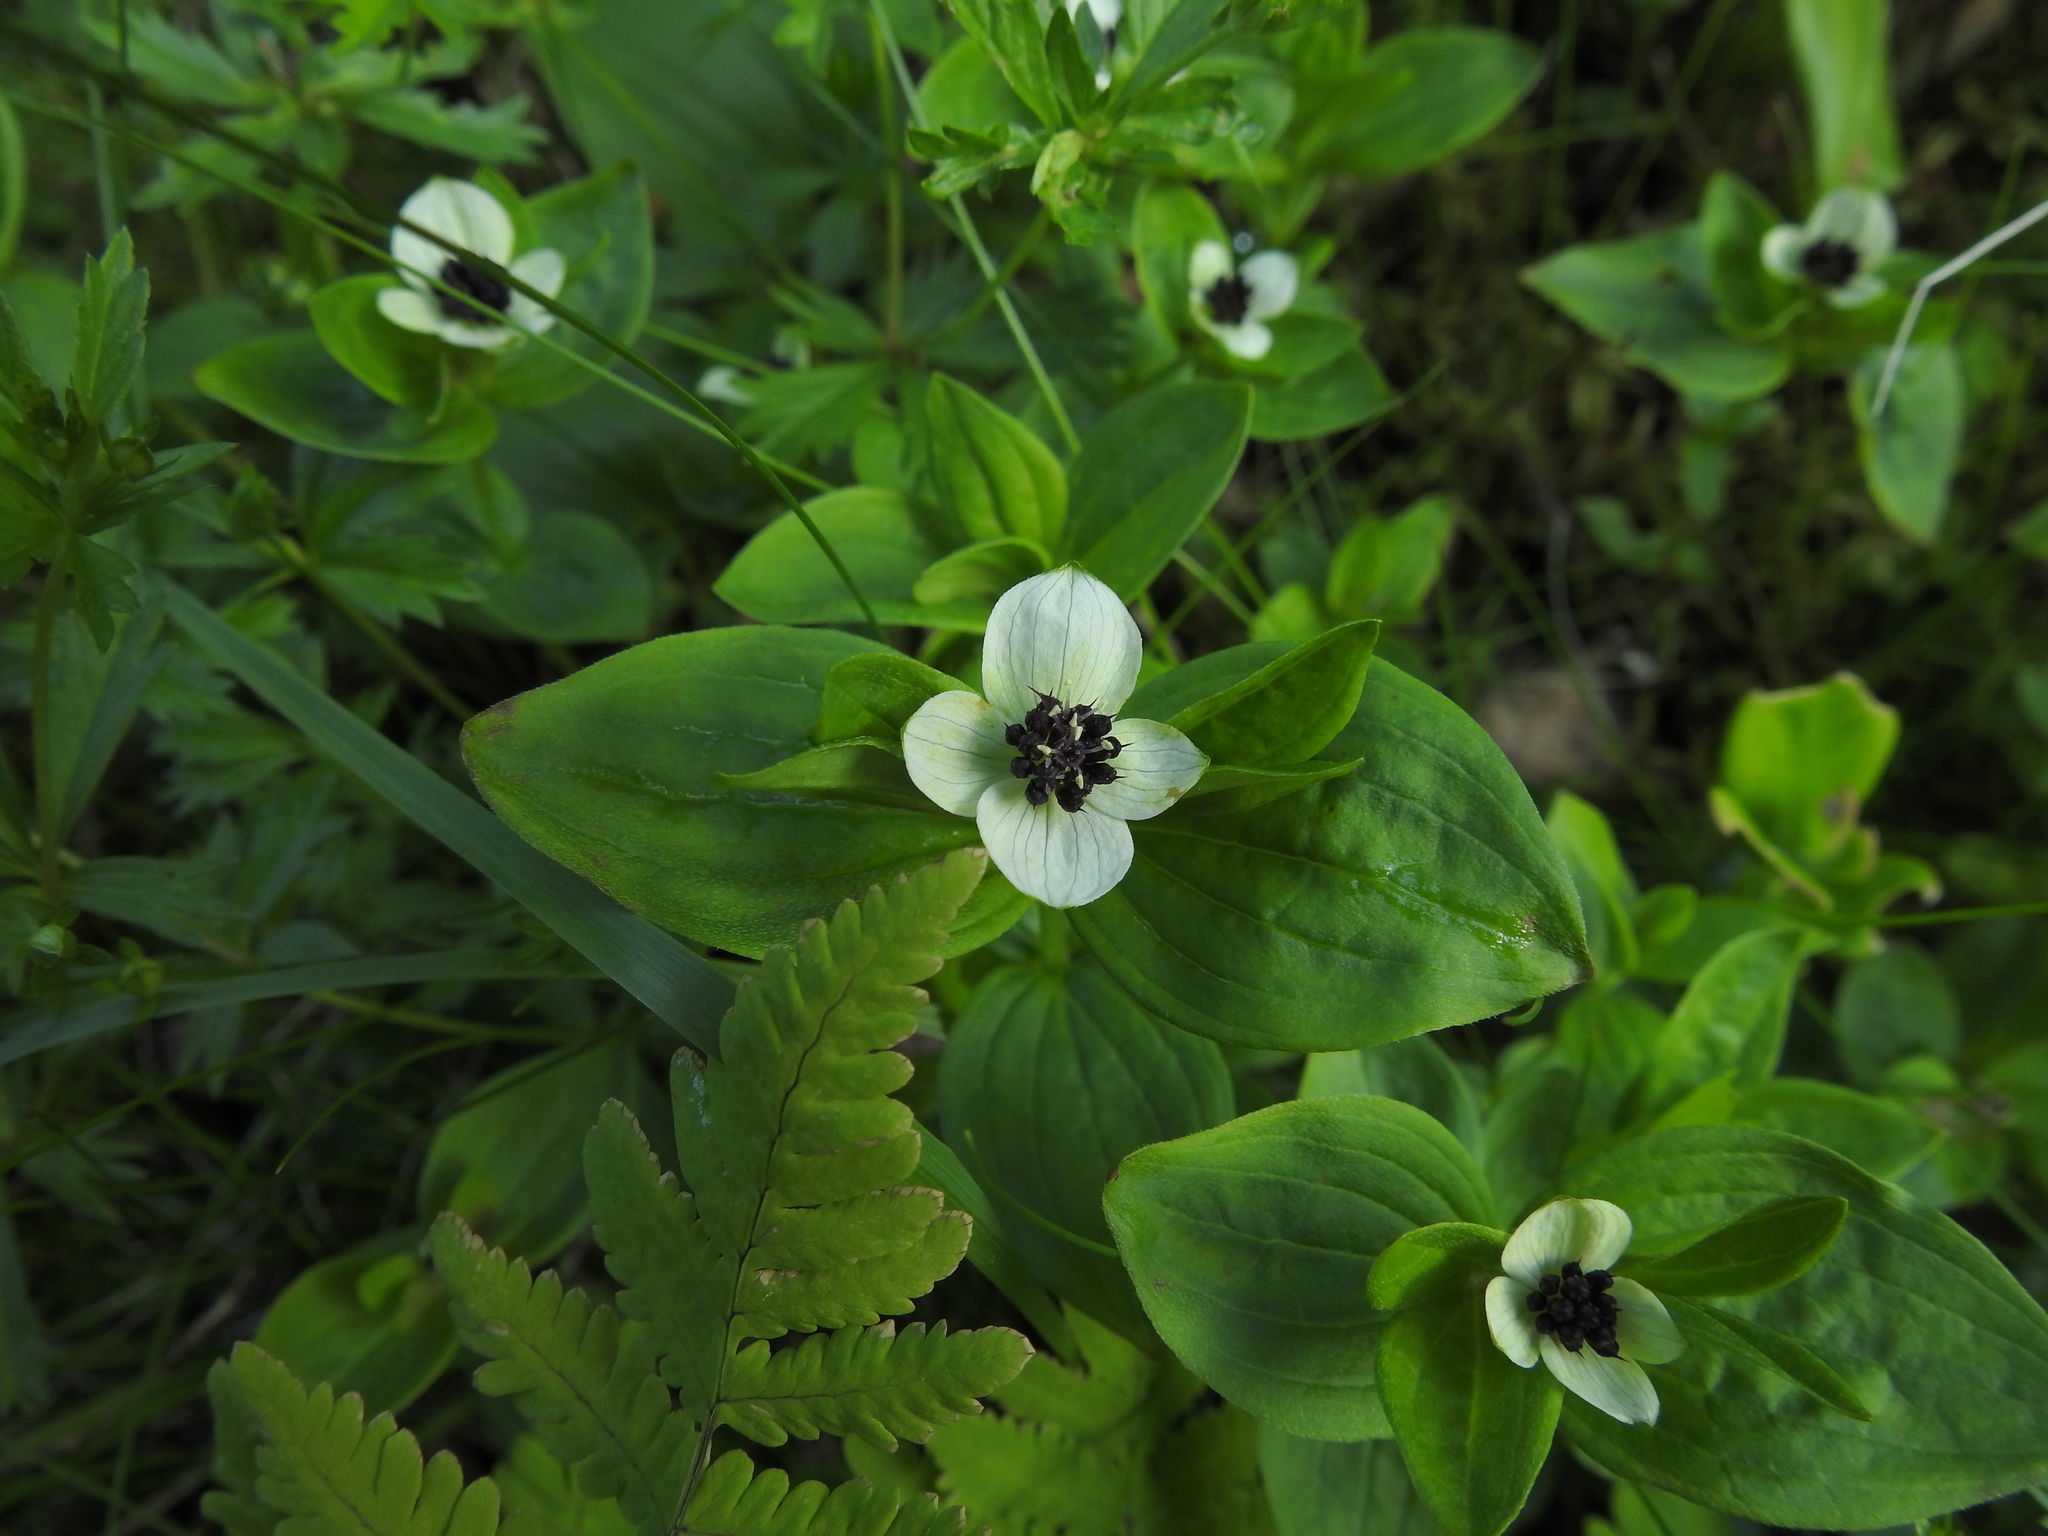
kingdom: Plantae
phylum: Tracheophyta
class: Magnoliopsida
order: Cornales
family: Cornaceae
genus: Cornus
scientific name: Cornus suecica
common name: Dwarf cornel
